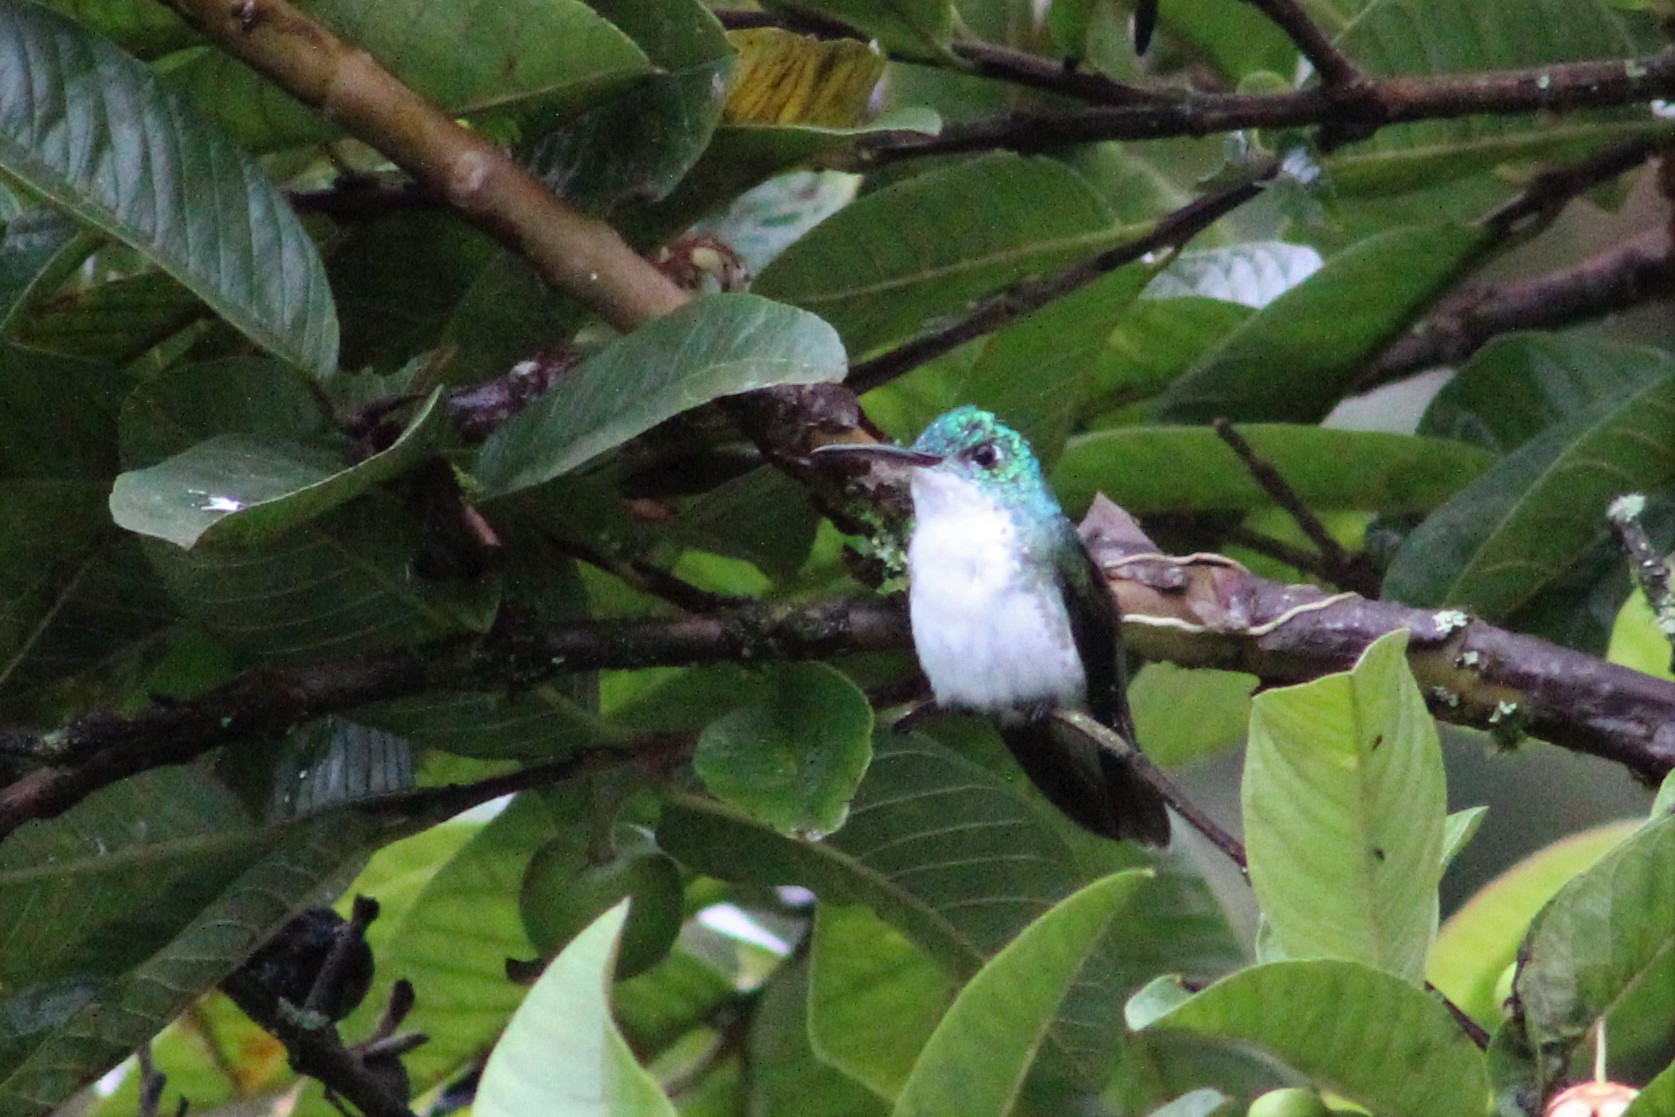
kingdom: Animalia
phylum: Chordata
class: Aves
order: Apodiformes
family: Trochilidae
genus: Uranomitra
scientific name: Uranomitra franciae
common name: Andean emerald
